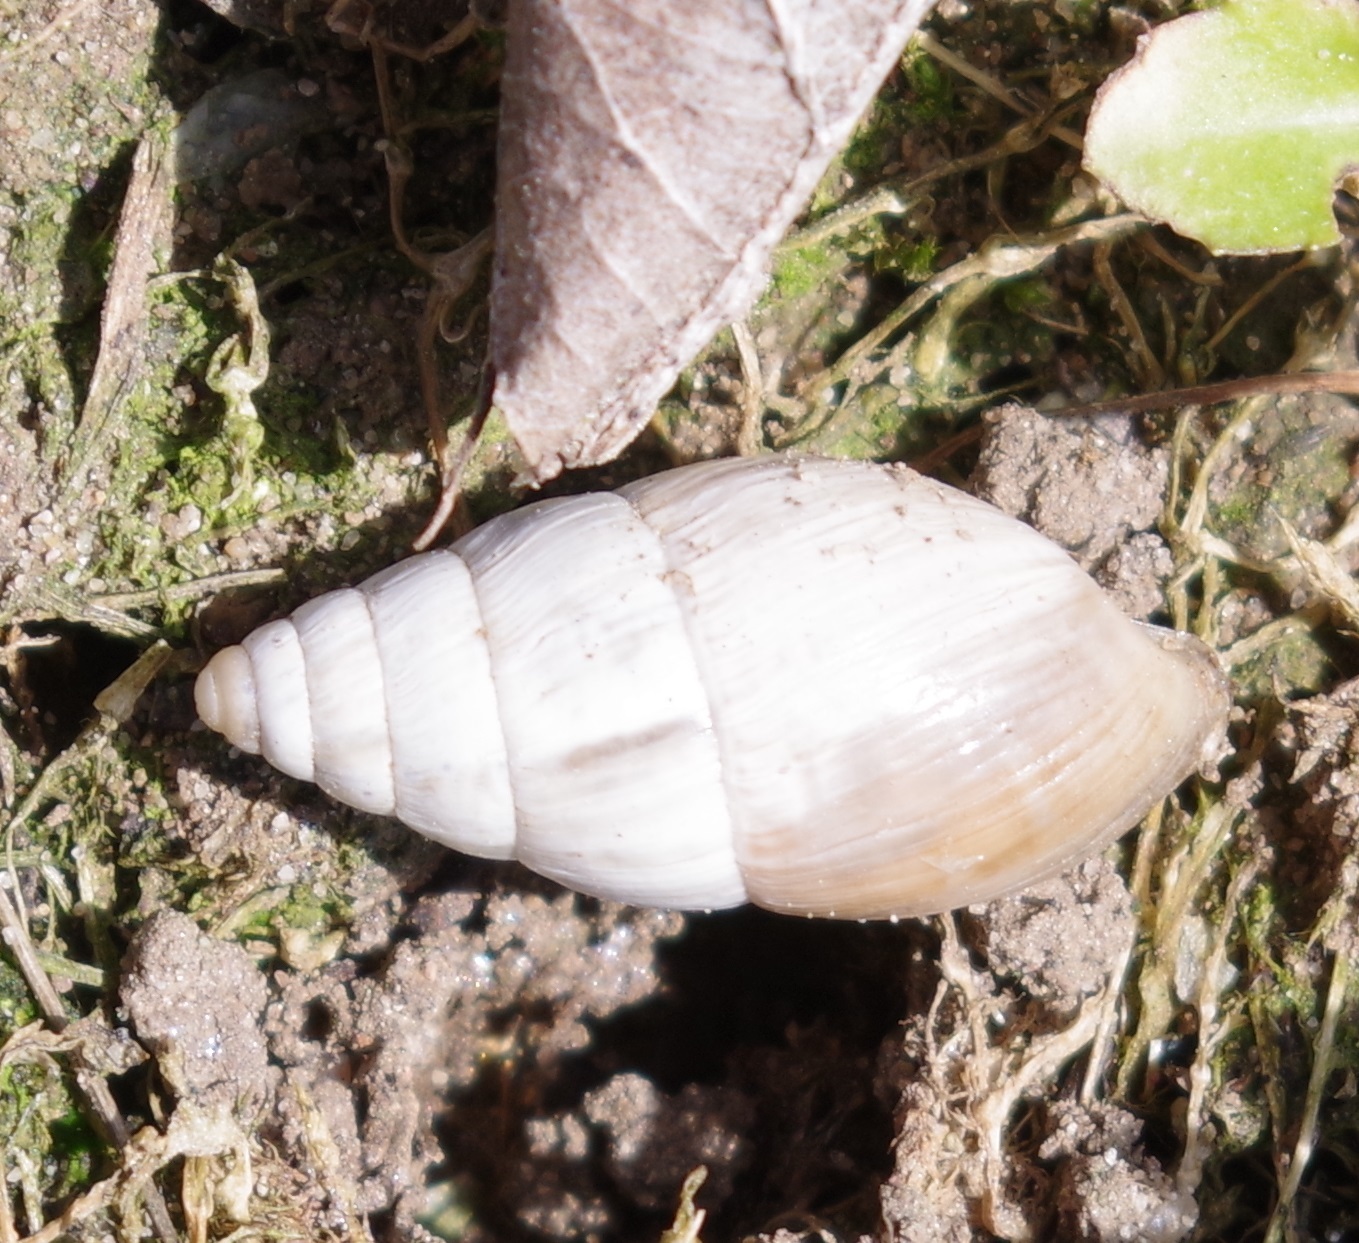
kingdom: Animalia
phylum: Mollusca
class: Gastropoda
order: Stylommatophora
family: Enidae
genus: Zebrina
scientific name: Zebrina detrita
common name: Large bulin
